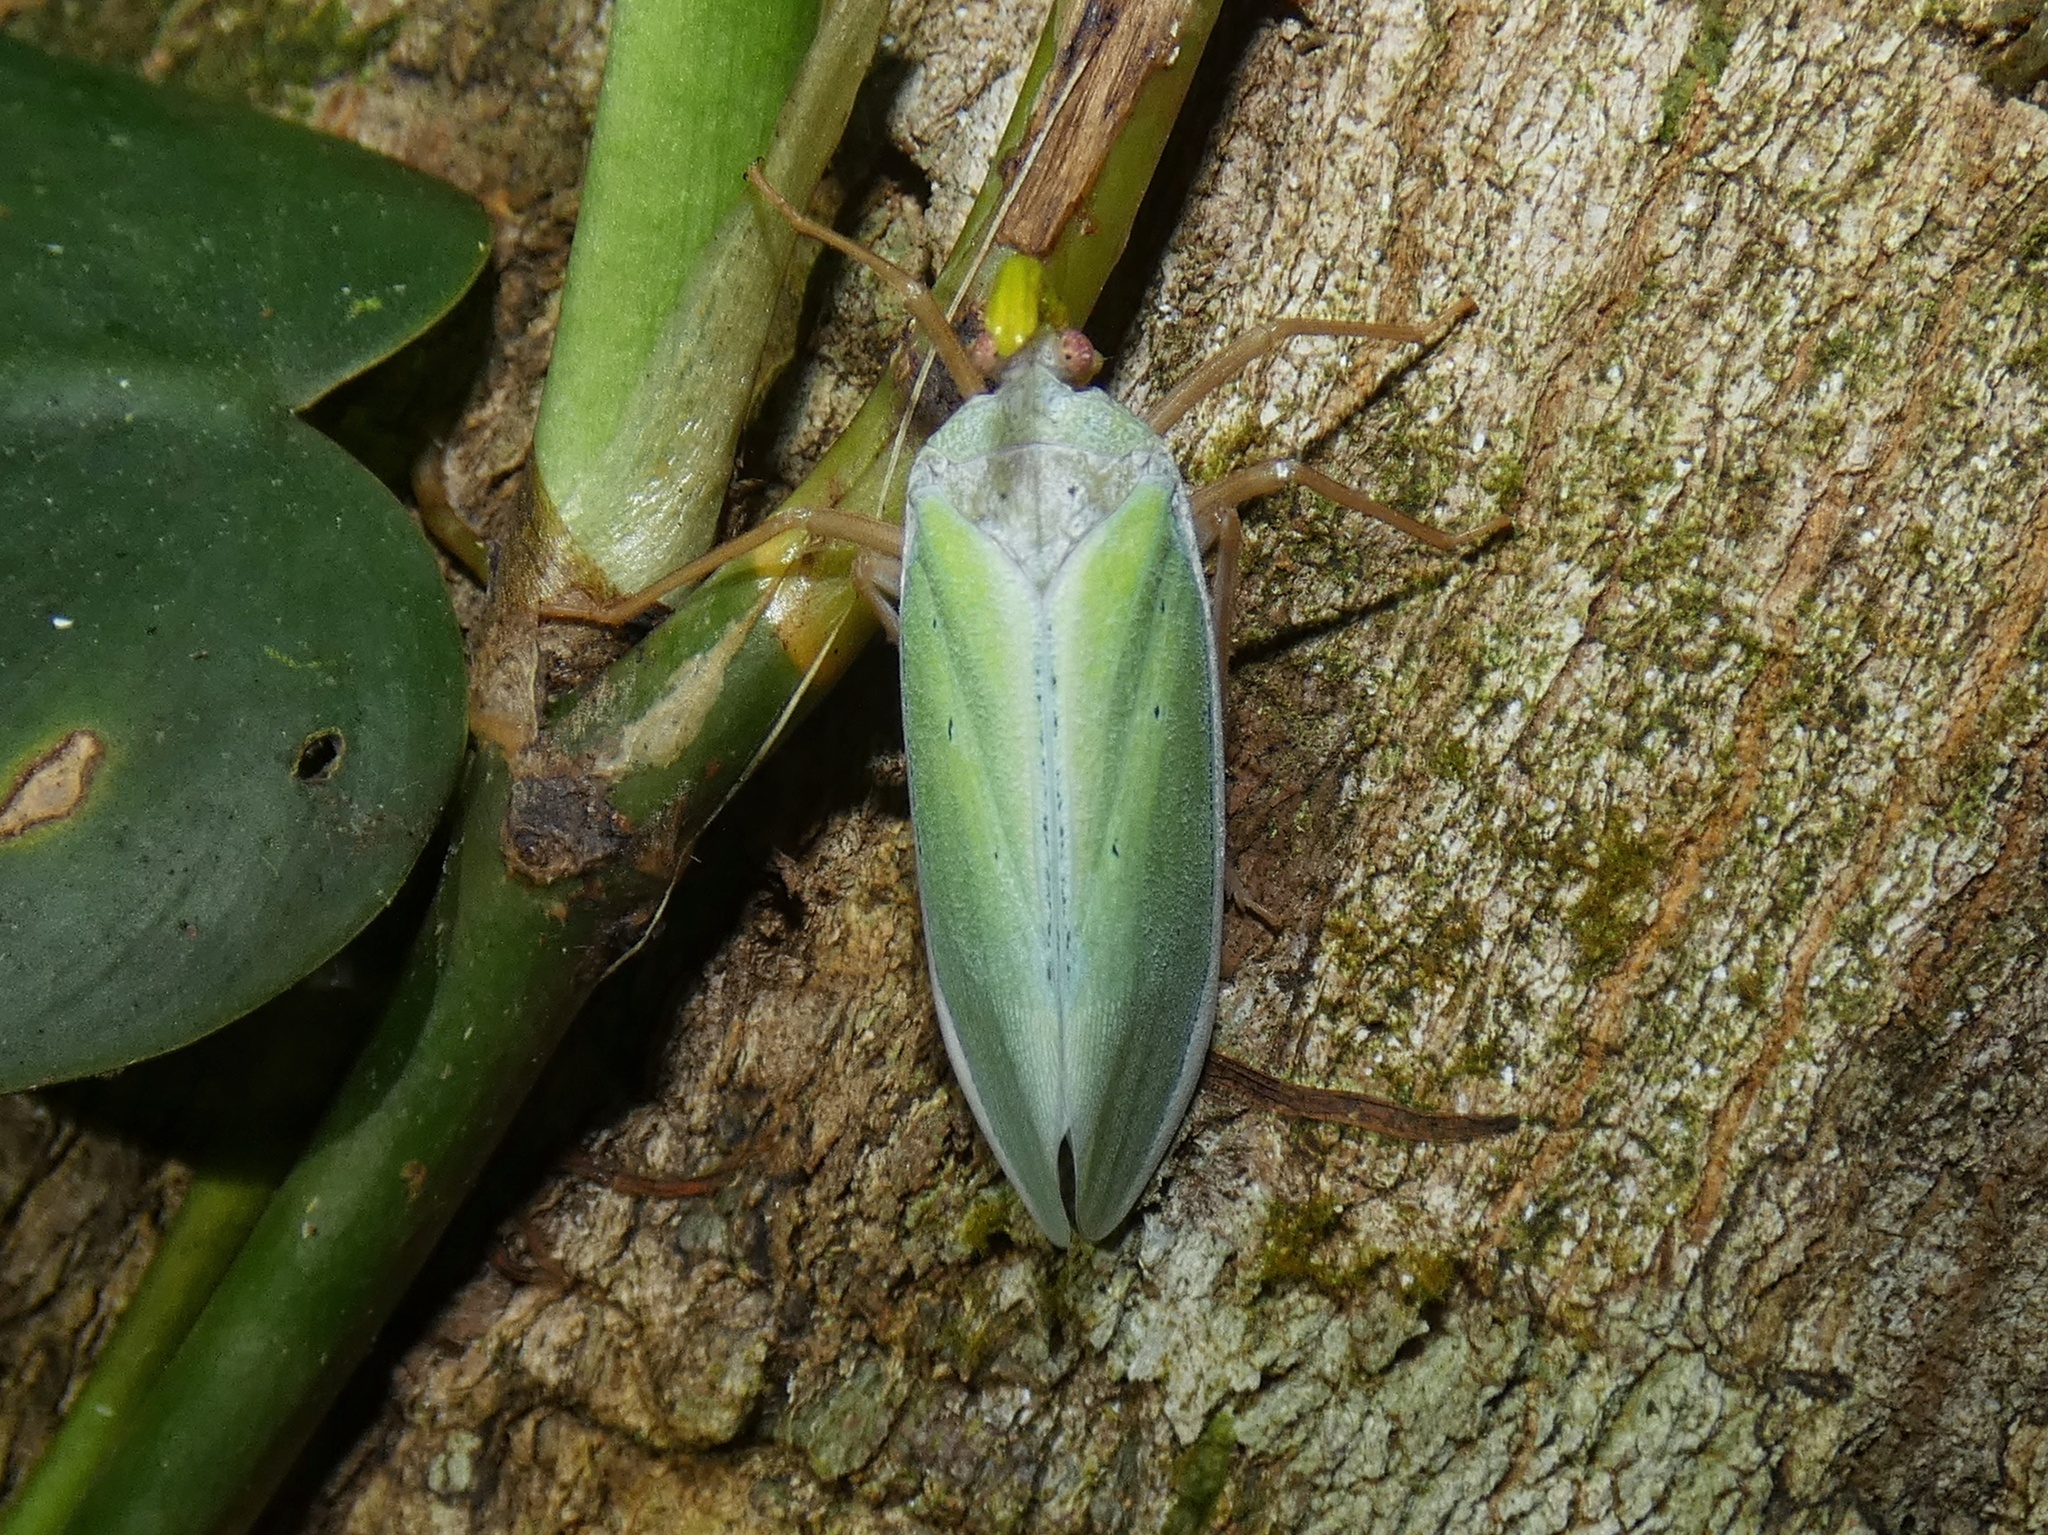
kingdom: Animalia
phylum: Arthropoda
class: Insecta
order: Hemiptera
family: Fulgoridae
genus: Enchophora
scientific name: Enchophora prasina
